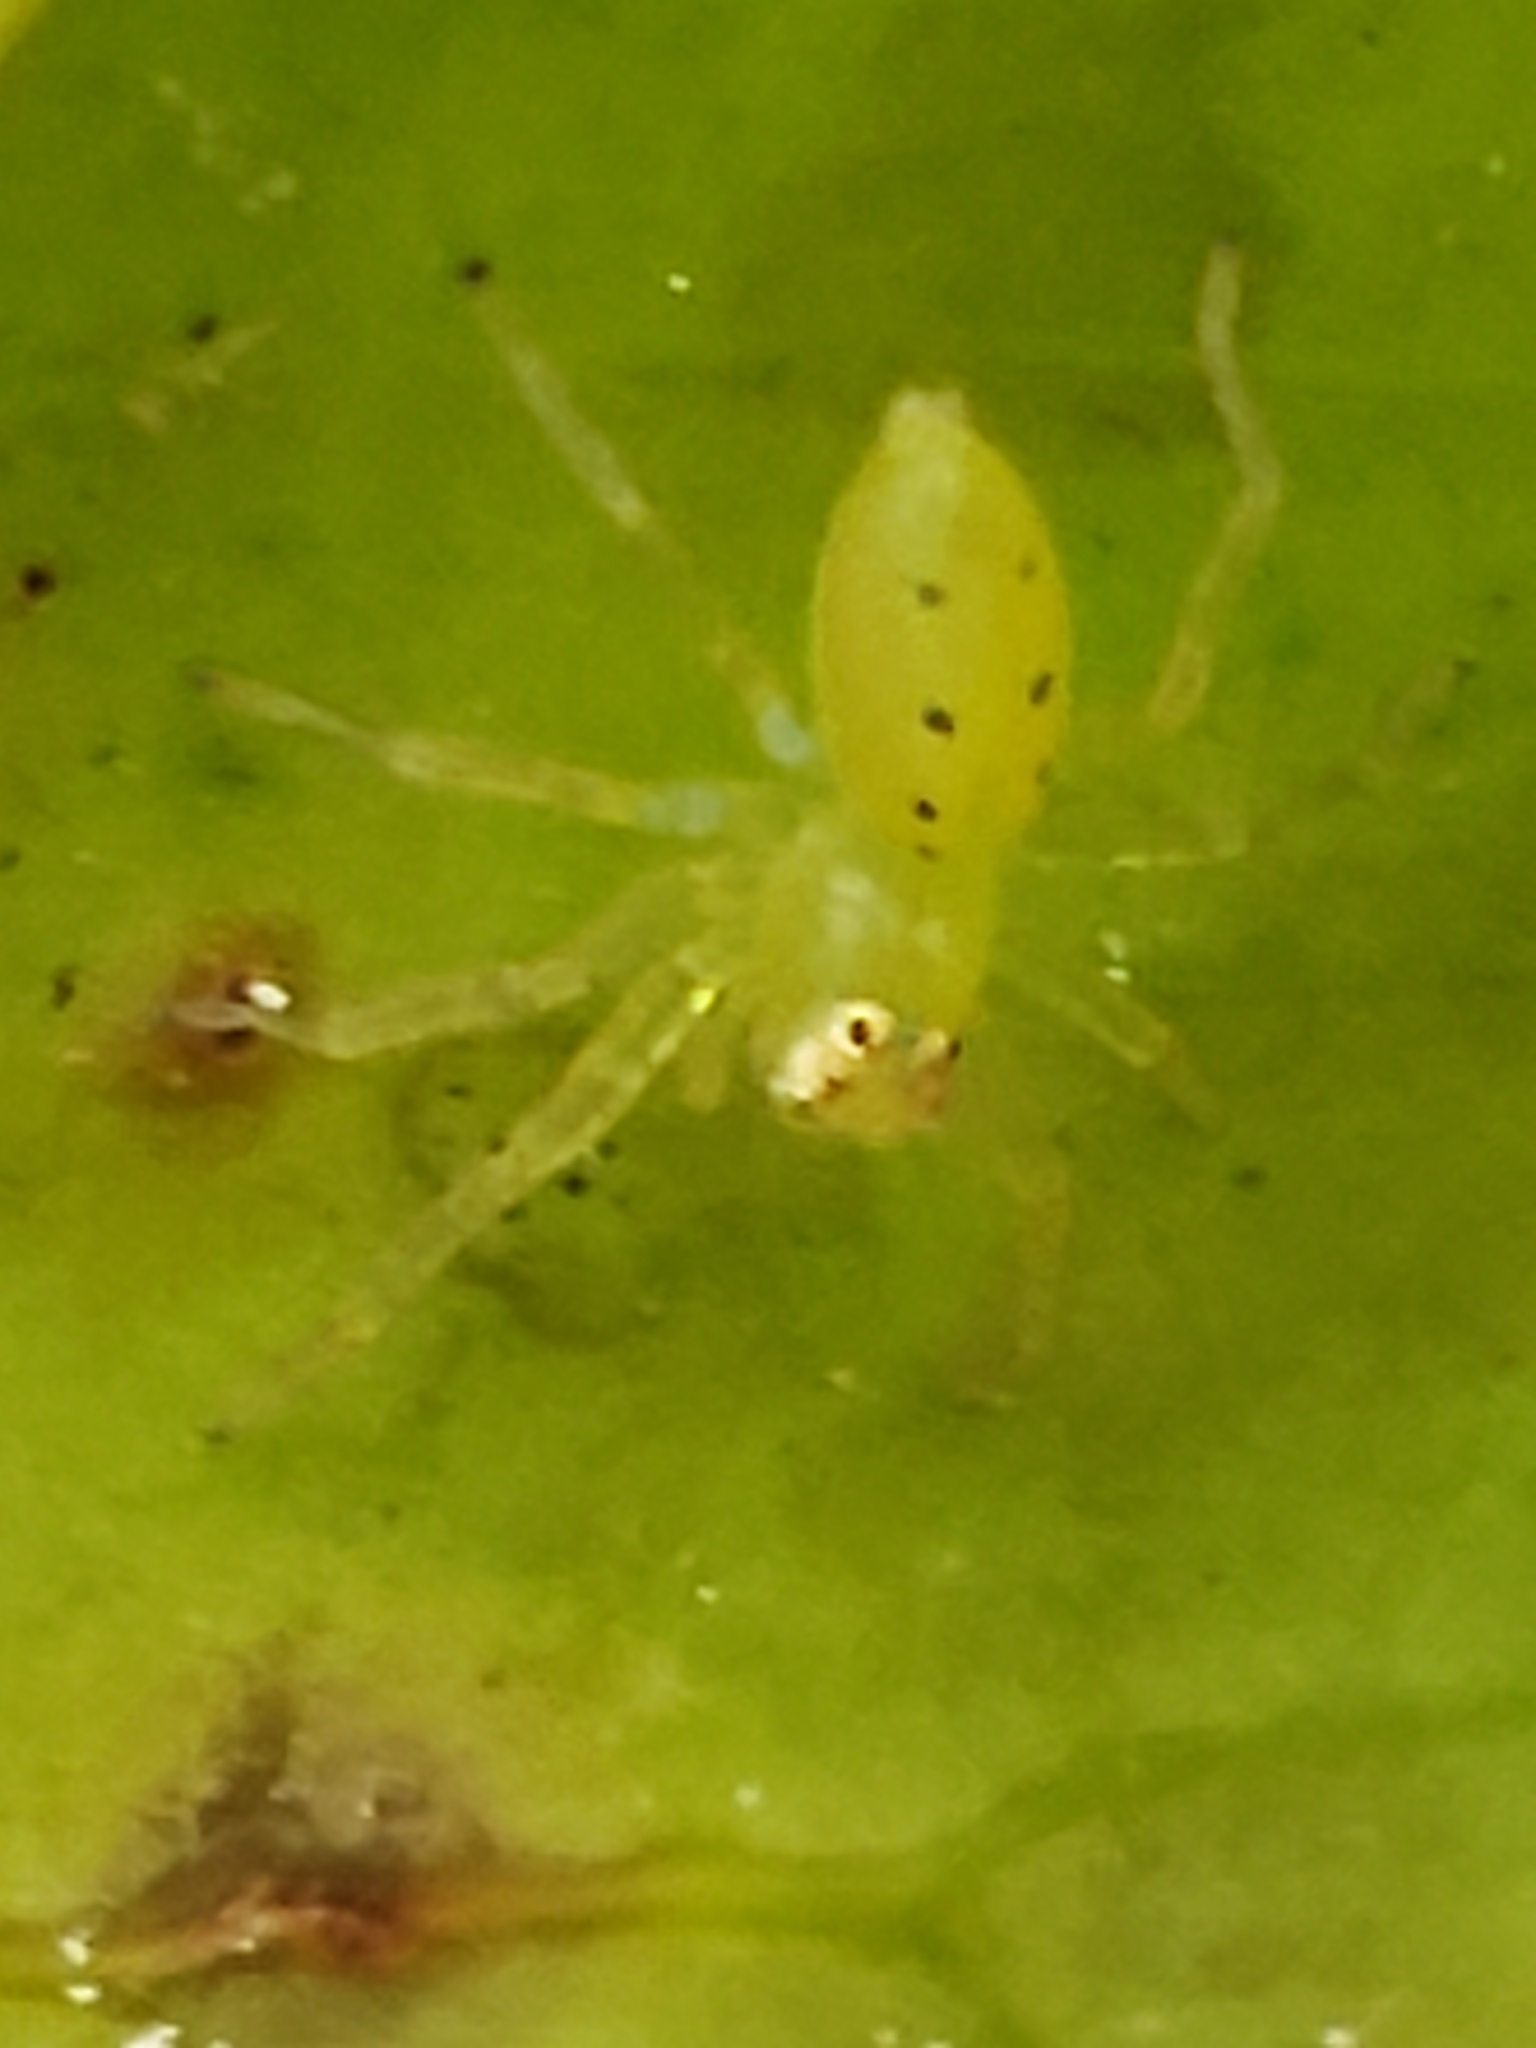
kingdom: Animalia
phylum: Arthropoda
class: Arachnida
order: Araneae
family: Salticidae
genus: Lyssomanes
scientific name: Lyssomanes viridis
